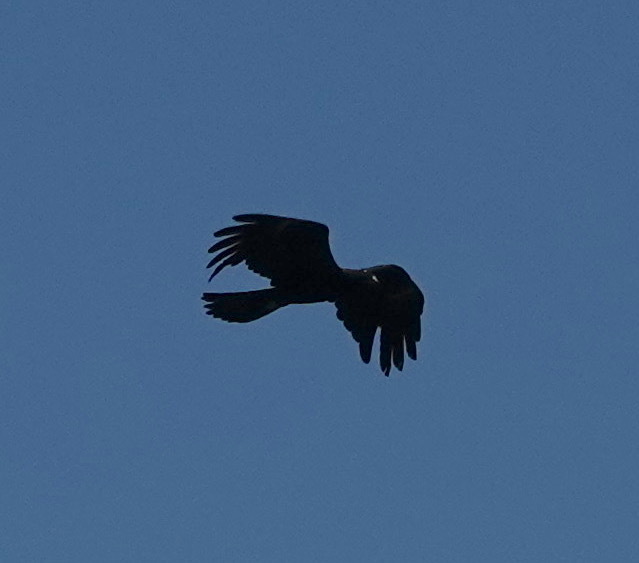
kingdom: Animalia
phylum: Chordata
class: Aves
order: Accipitriformes
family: Accipitridae
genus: Ictinaetus
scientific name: Ictinaetus malayensis
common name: Black eagle
